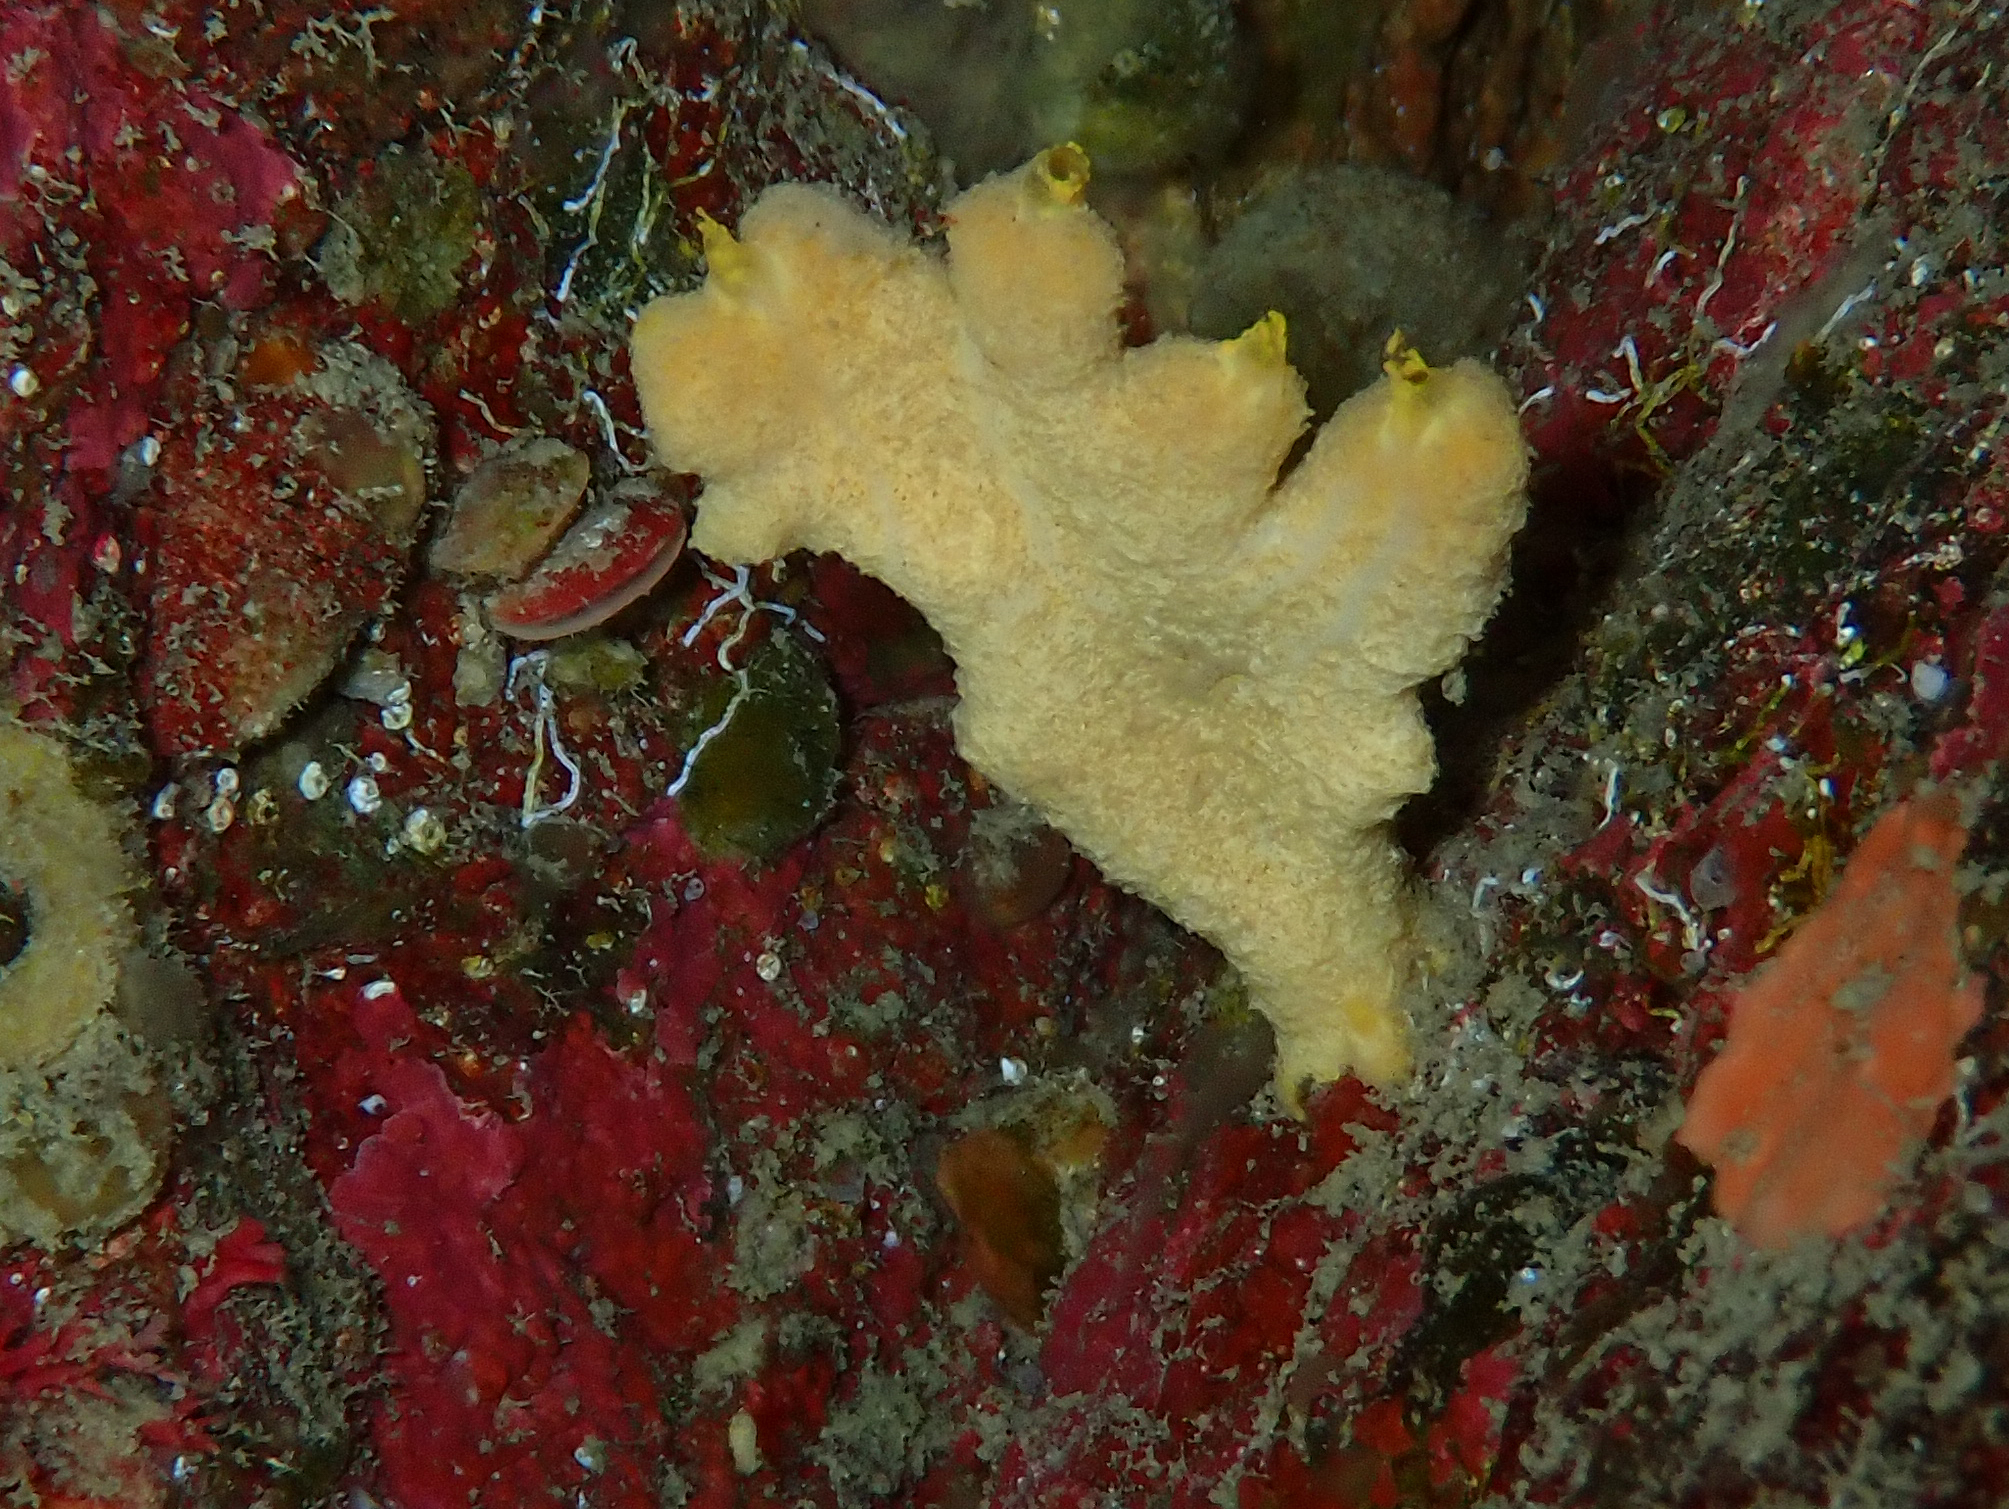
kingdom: Animalia
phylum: Porifera
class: Demospongiae
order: Axinellida
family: Axinellidae
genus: Axinella
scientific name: Axinella damicornis
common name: Crumpled duster sponge
